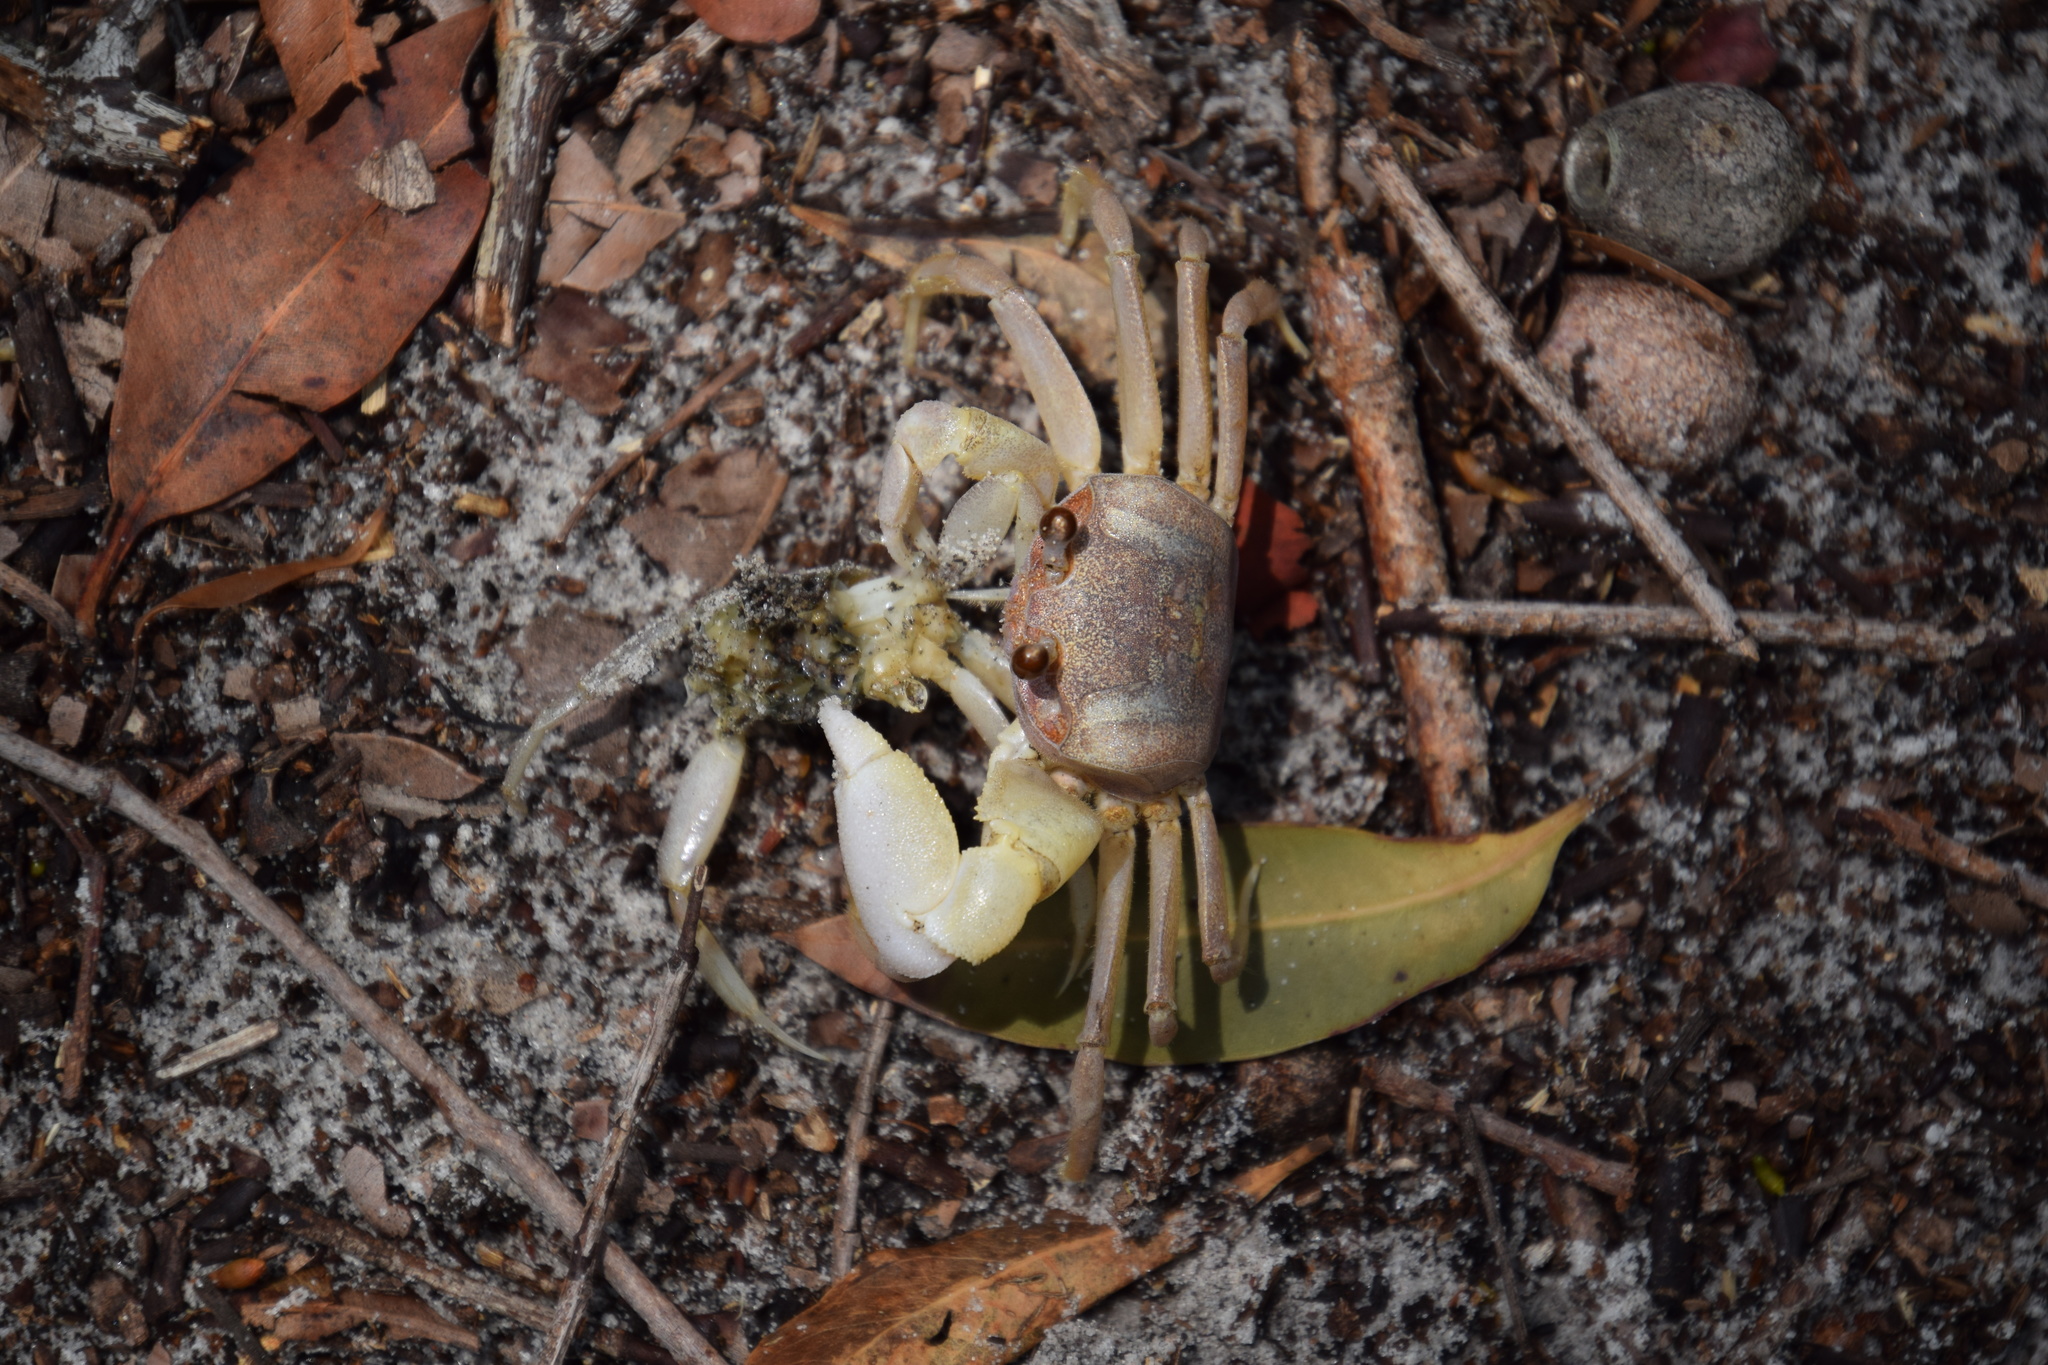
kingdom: Animalia
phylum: Arthropoda
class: Malacostraca
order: Decapoda
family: Ocypodidae
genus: Ocypode
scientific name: Ocypode cordimana
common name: Smooth-eyed ghost crab
